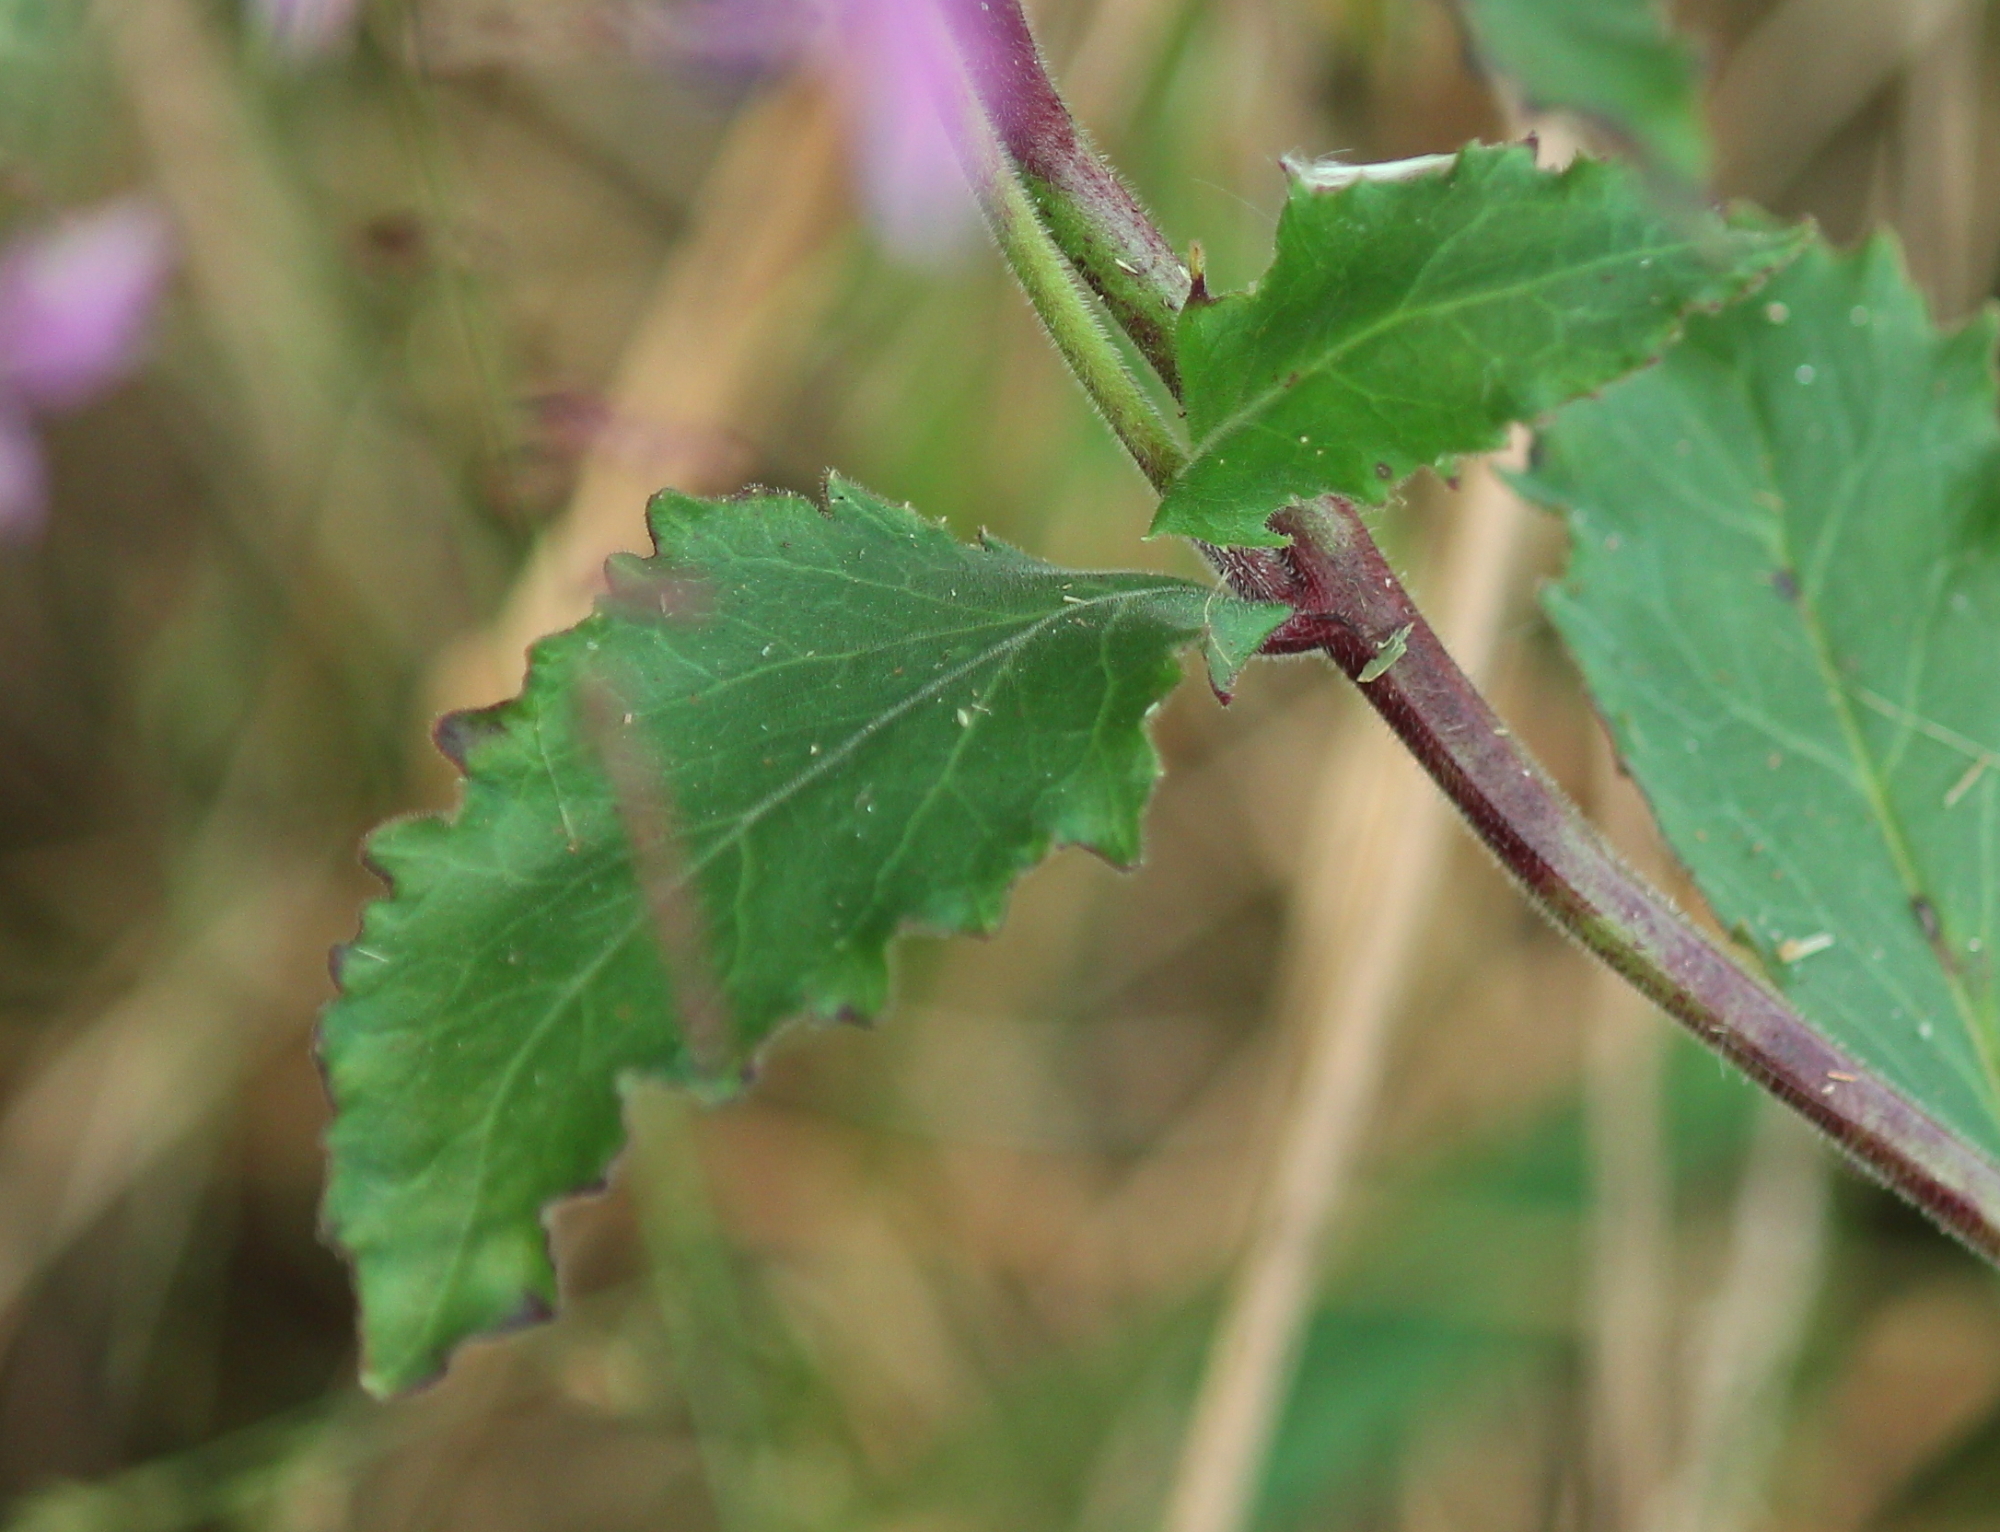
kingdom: Plantae
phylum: Tracheophyta
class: Magnoliopsida
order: Asterales
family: Campanulaceae
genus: Lobelia
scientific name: Lobelia puberula
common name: Purple dewdrop
